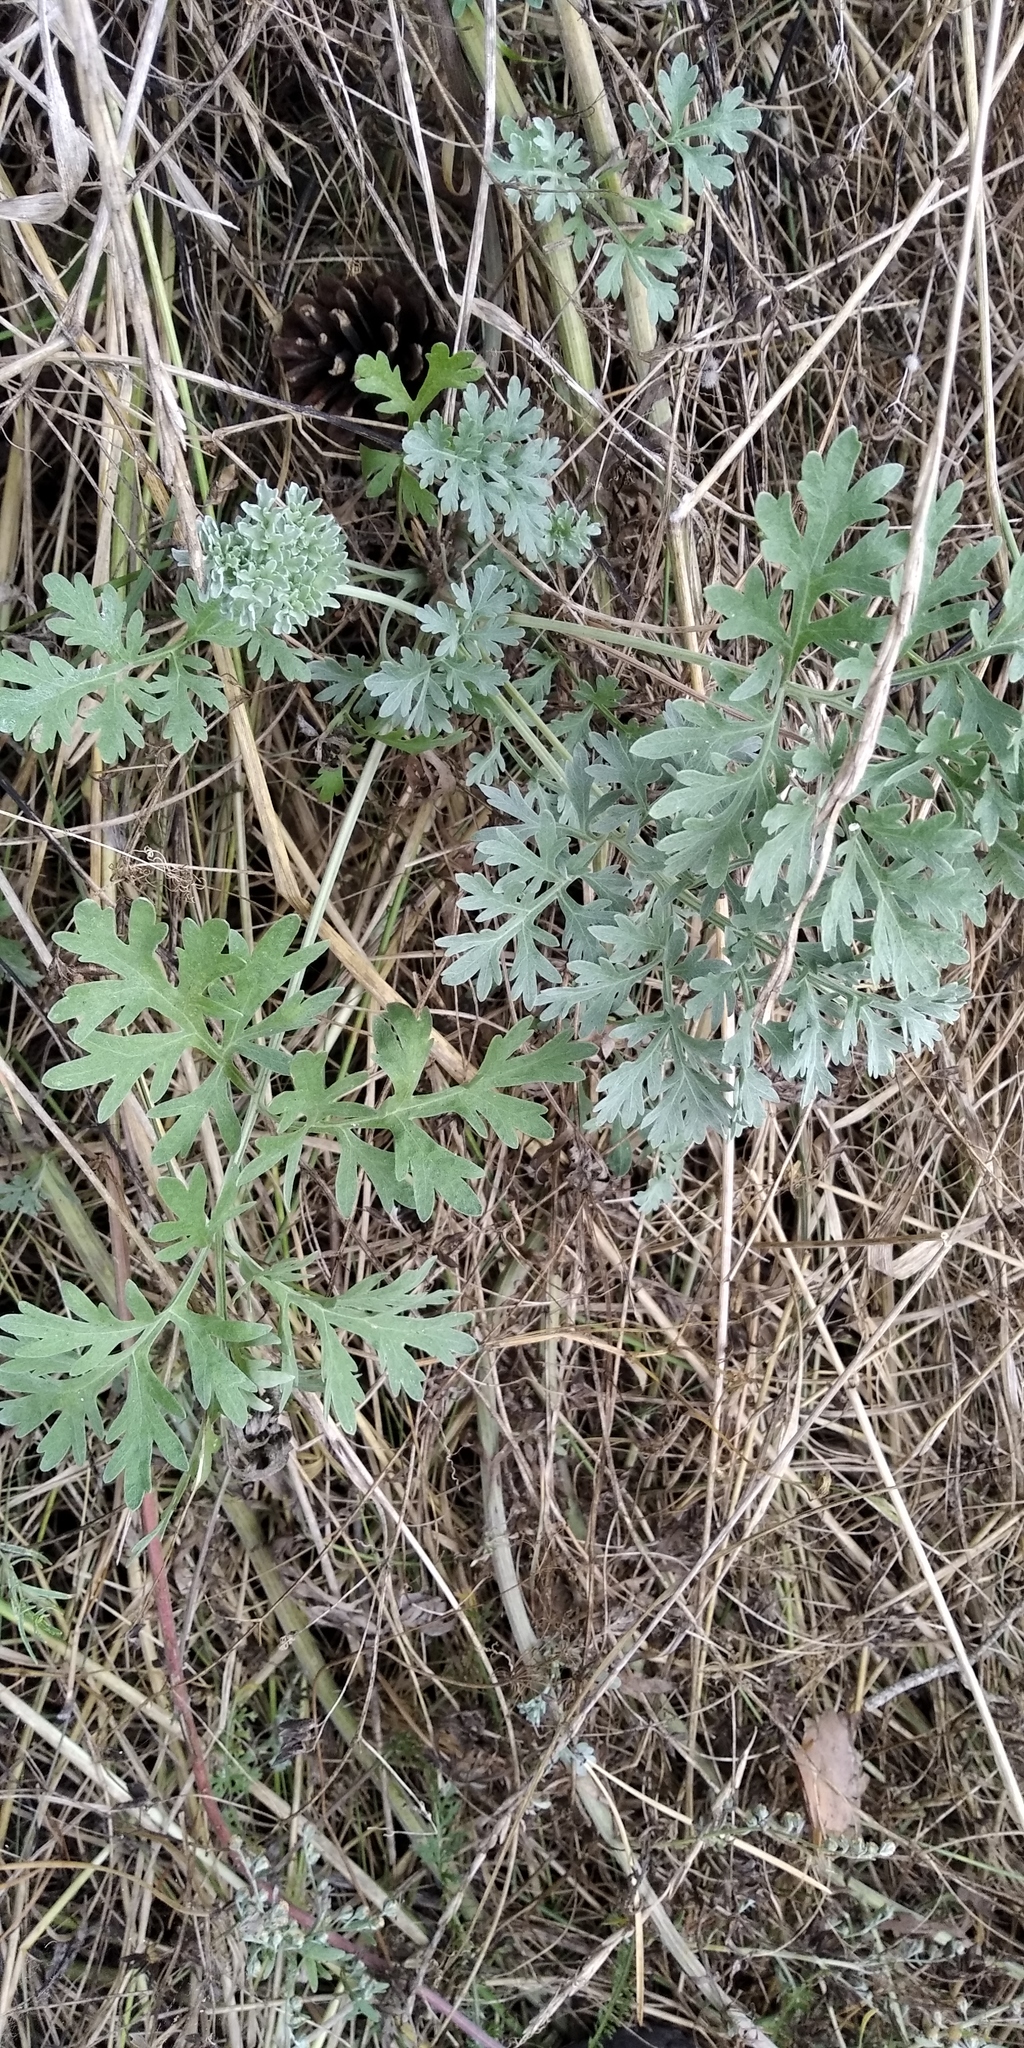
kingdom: Plantae
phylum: Tracheophyta
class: Magnoliopsida
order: Asterales
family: Asteraceae
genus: Artemisia
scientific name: Artemisia absinthium
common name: Wormwood
